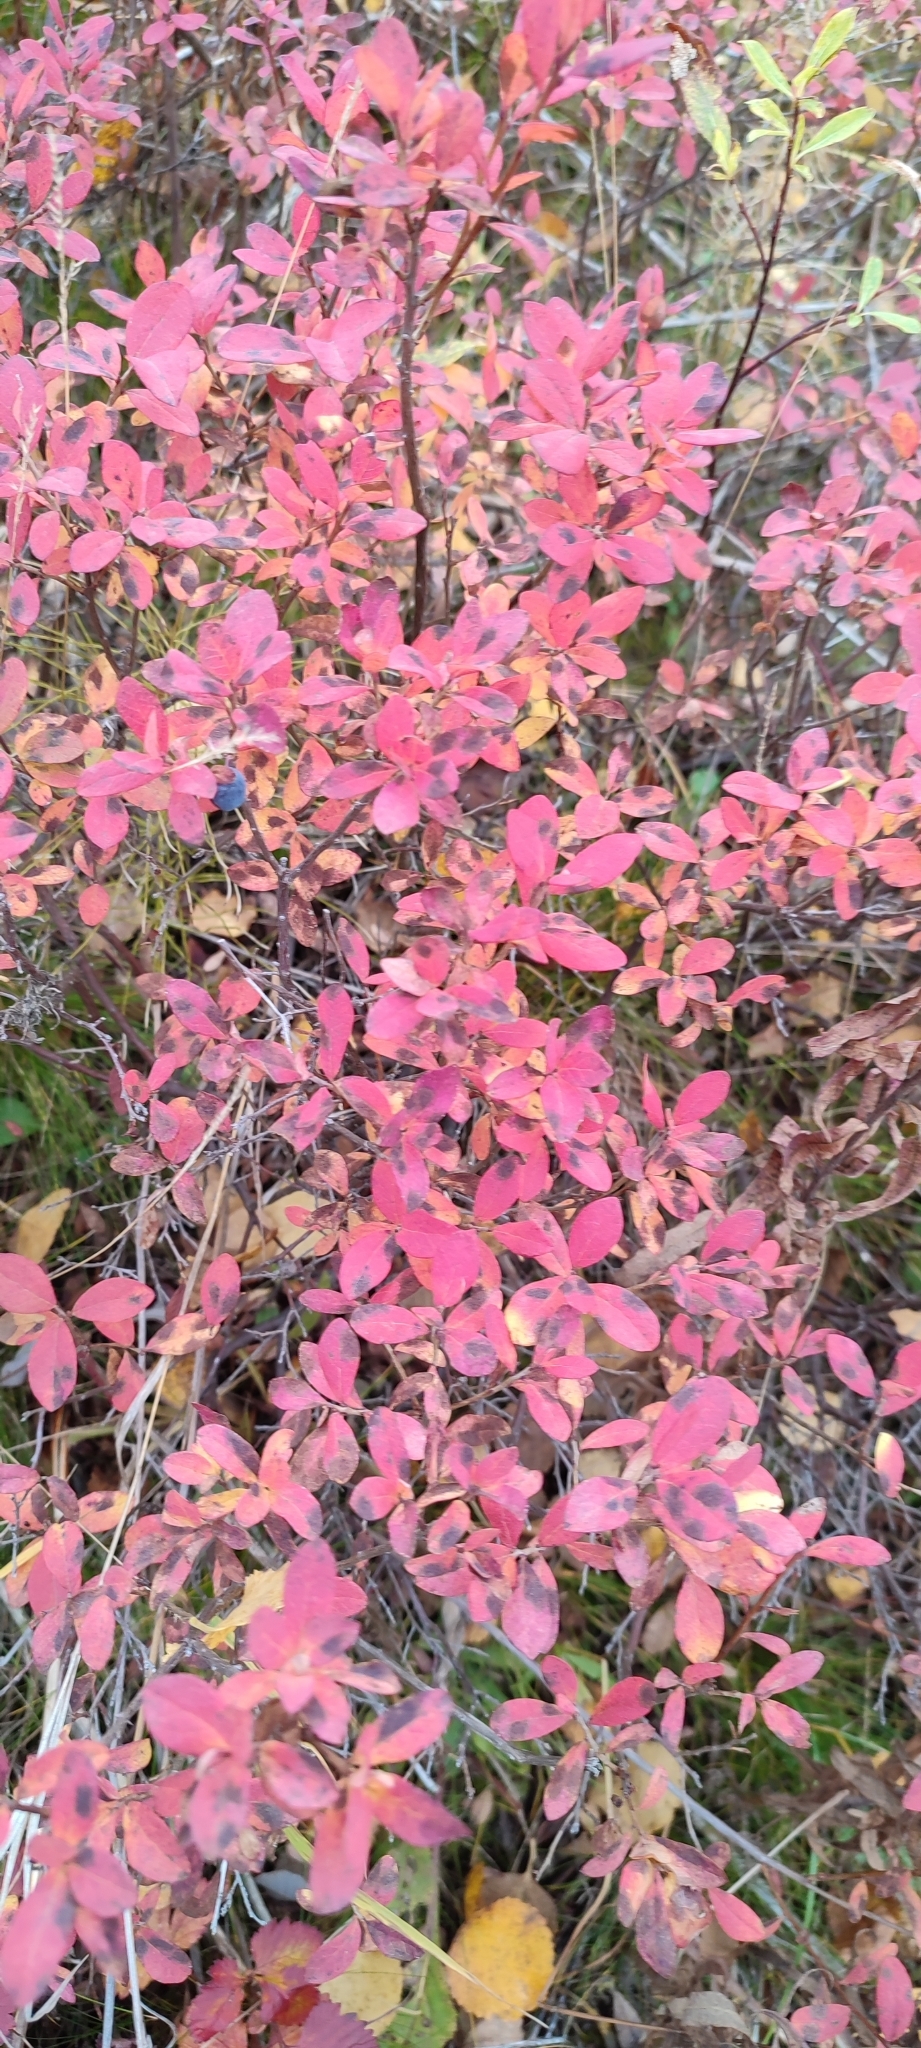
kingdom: Plantae
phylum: Tracheophyta
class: Magnoliopsida
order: Ericales
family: Ericaceae
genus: Vaccinium
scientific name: Vaccinium uliginosum
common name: Bog bilberry
